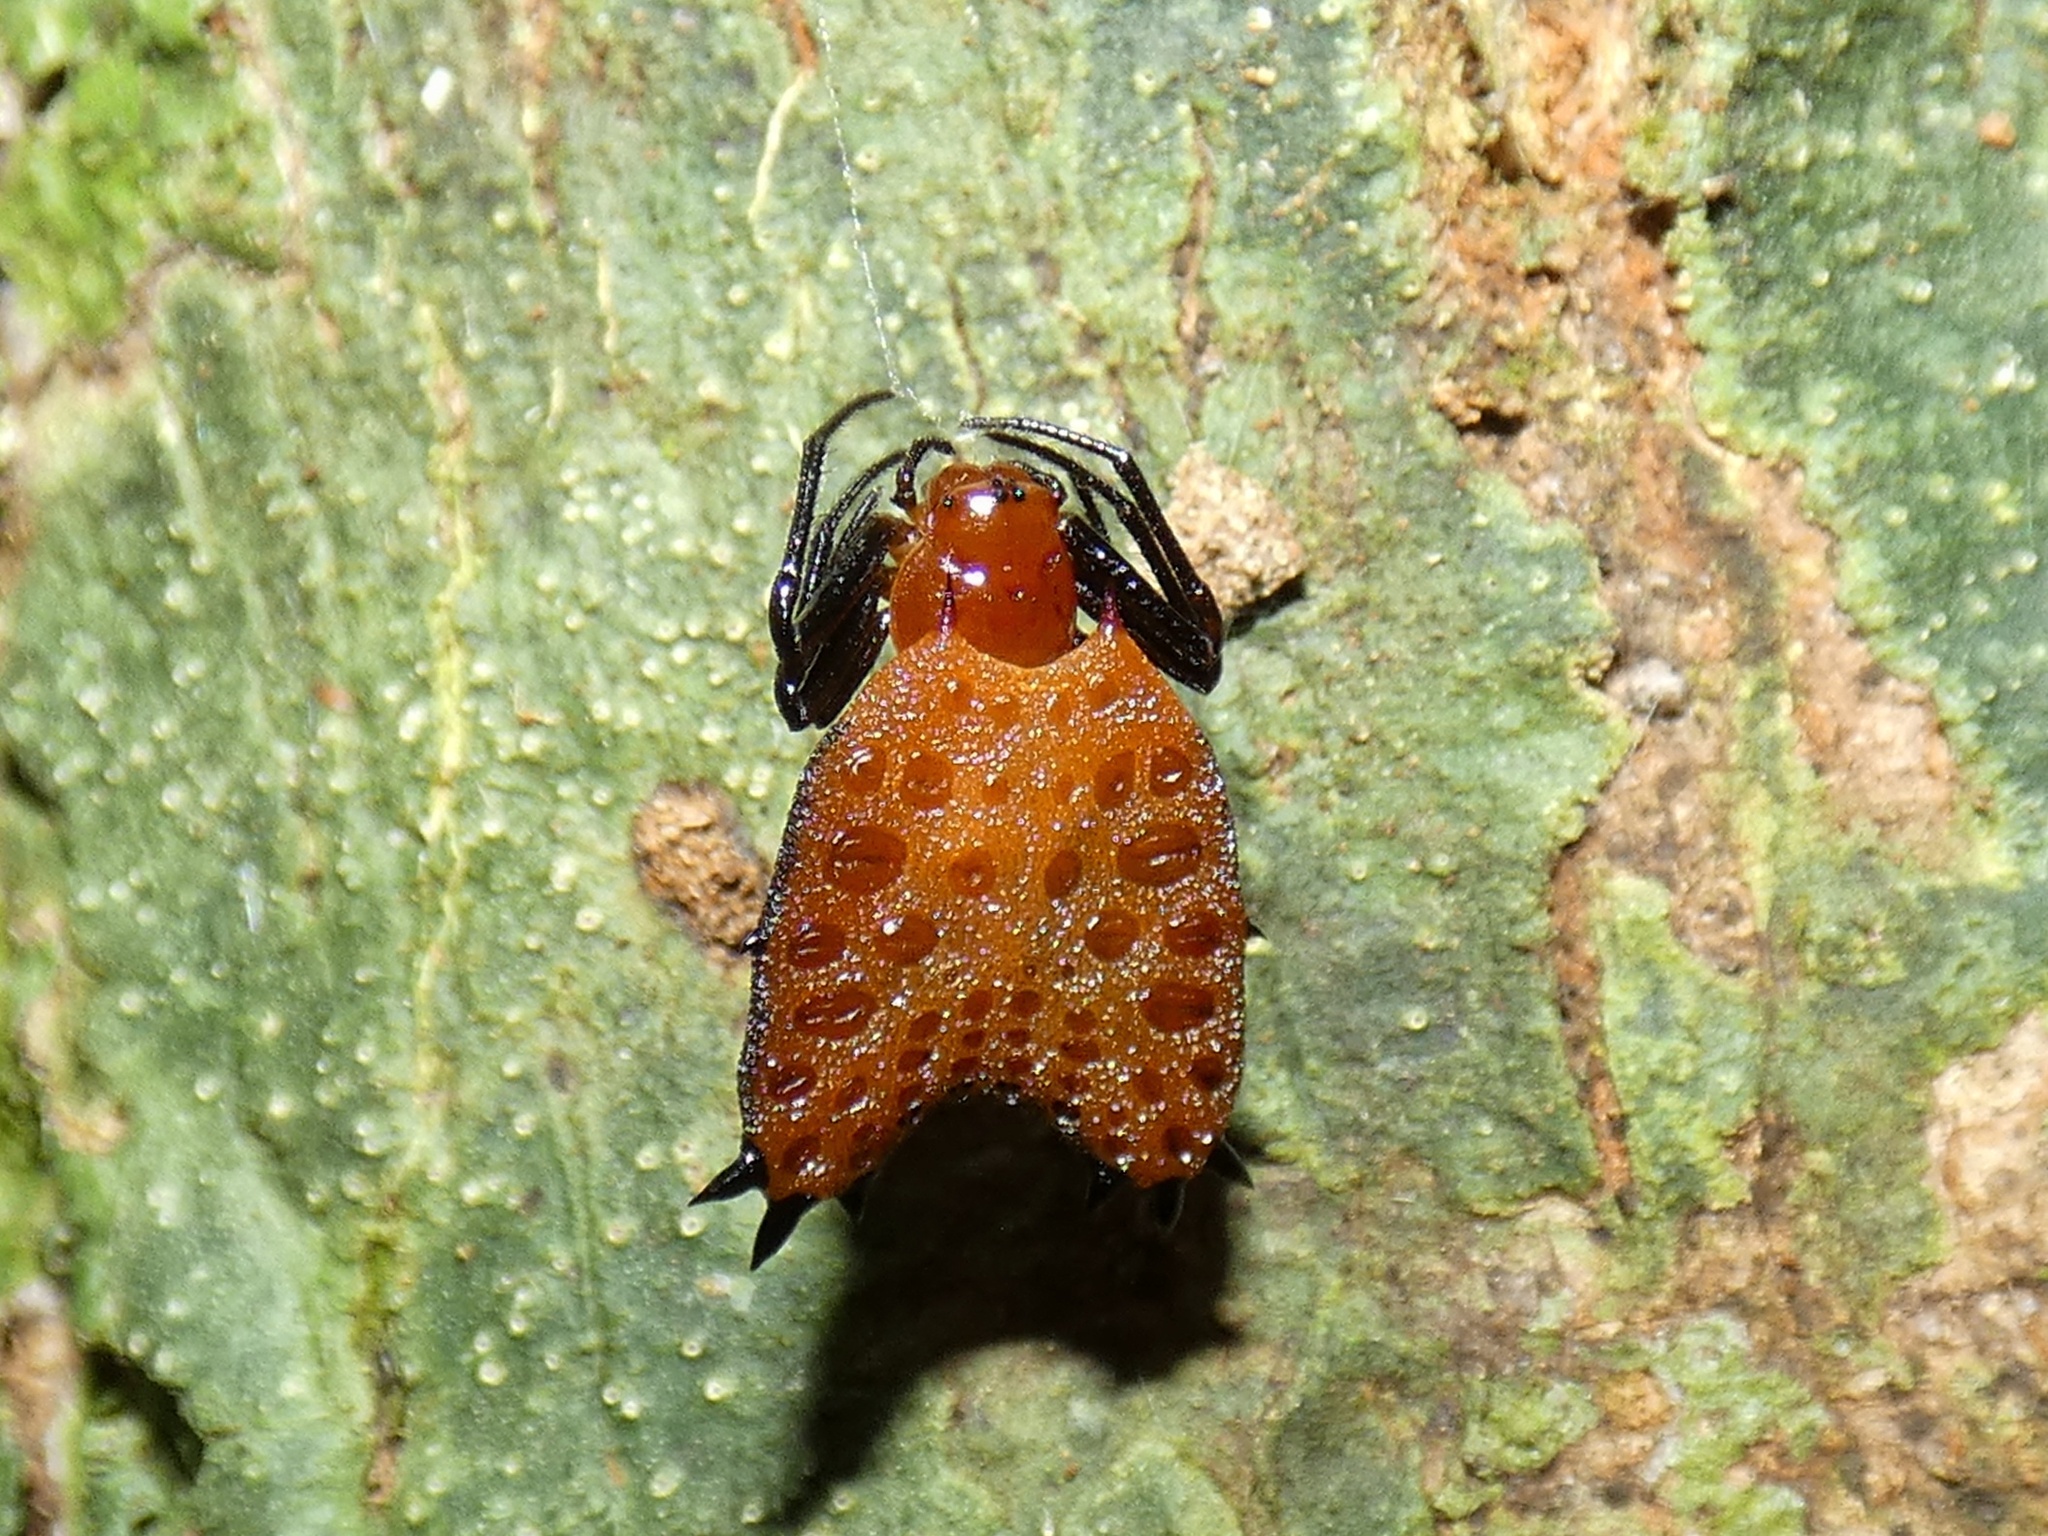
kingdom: Animalia
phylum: Arthropoda
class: Arachnida
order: Araneae
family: Araneidae
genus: Micrathena
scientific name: Micrathena clypeata
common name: Orb weavers
